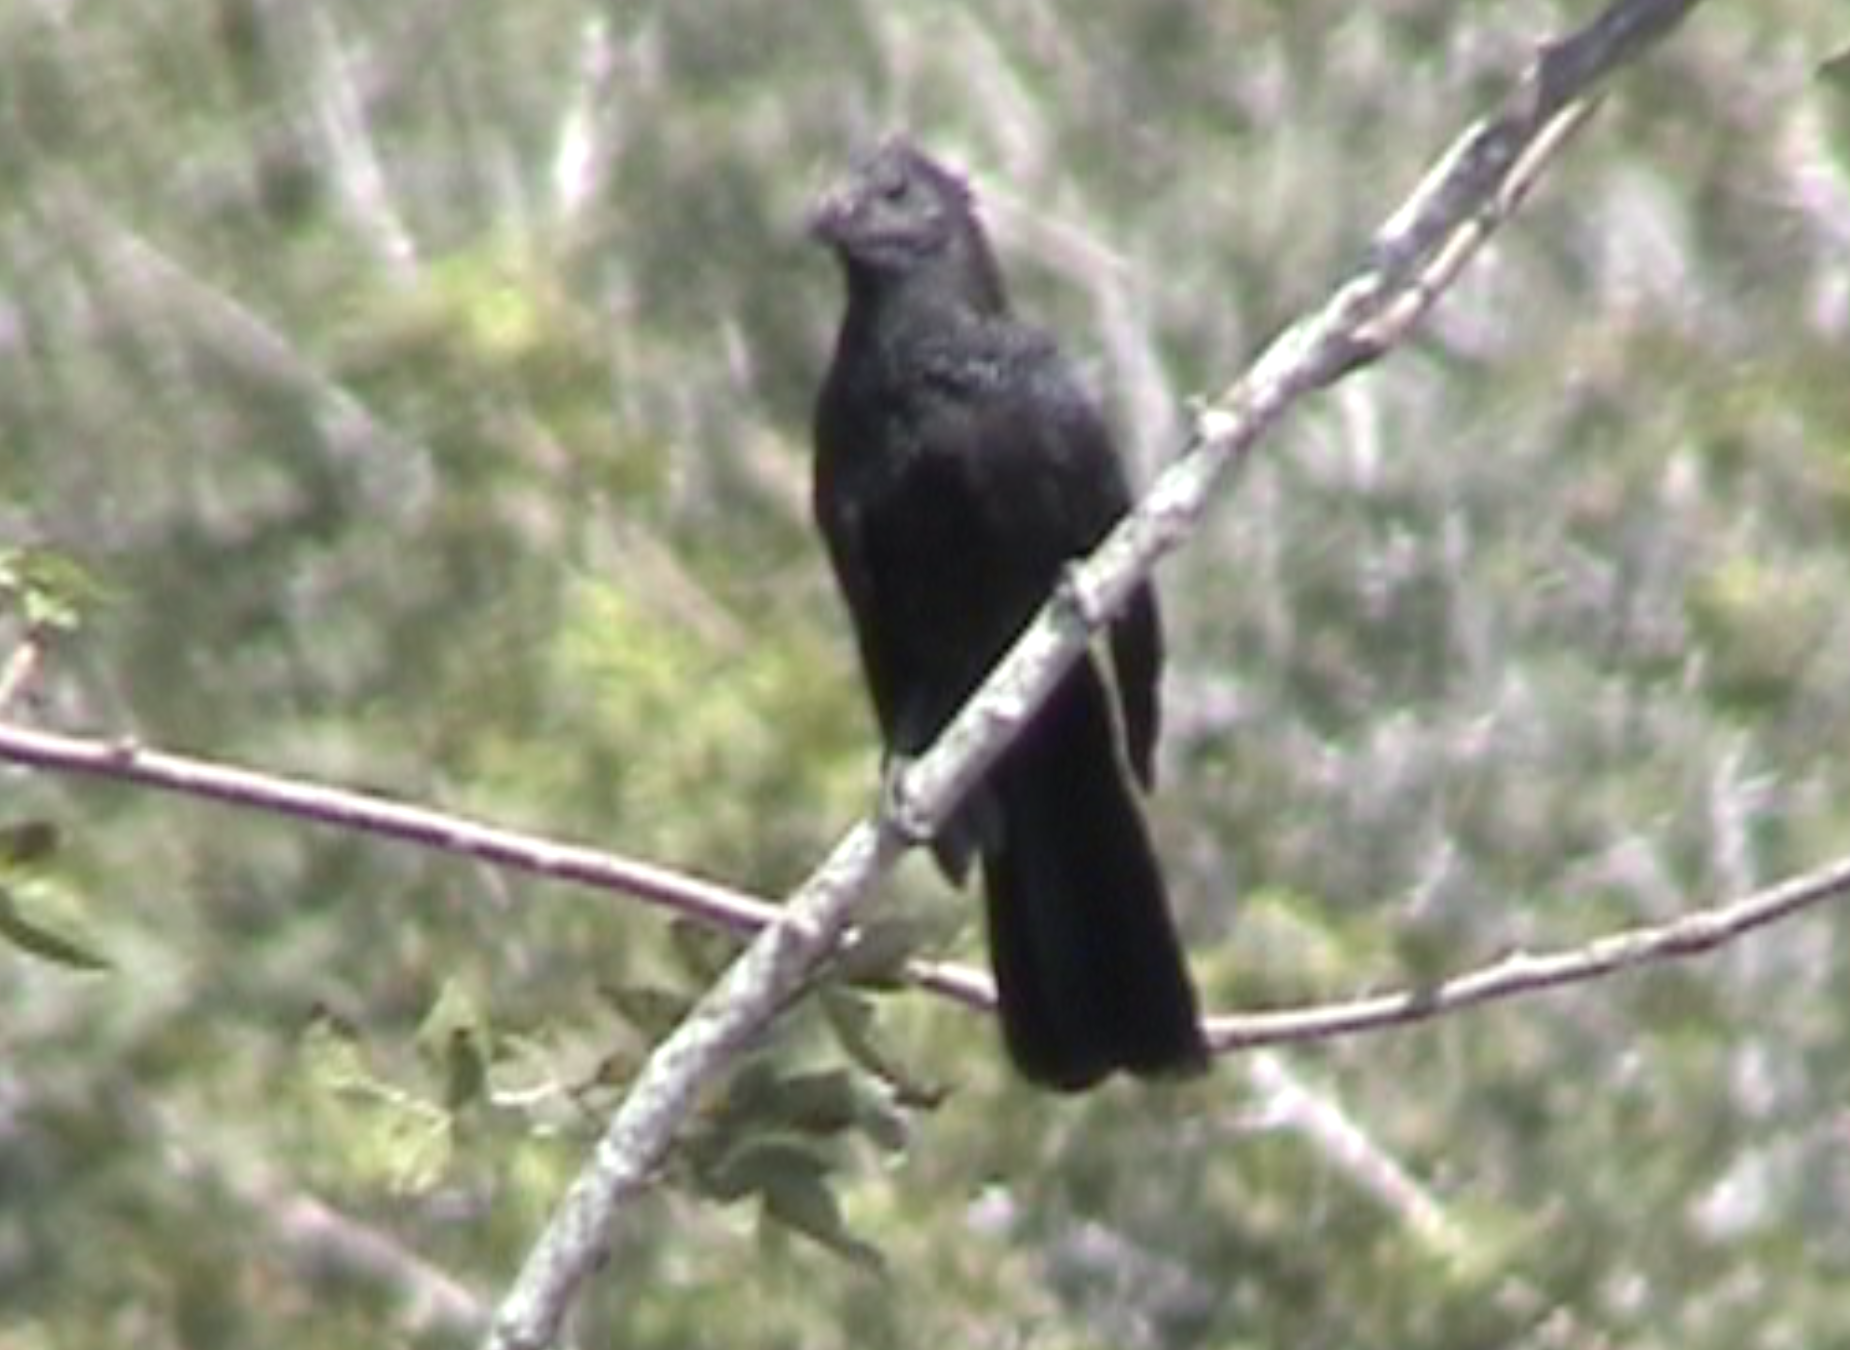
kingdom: Animalia
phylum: Chordata
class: Aves
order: Cuculiformes
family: Cuculidae
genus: Crotophaga
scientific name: Crotophaga ani
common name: Smooth-billed ani
